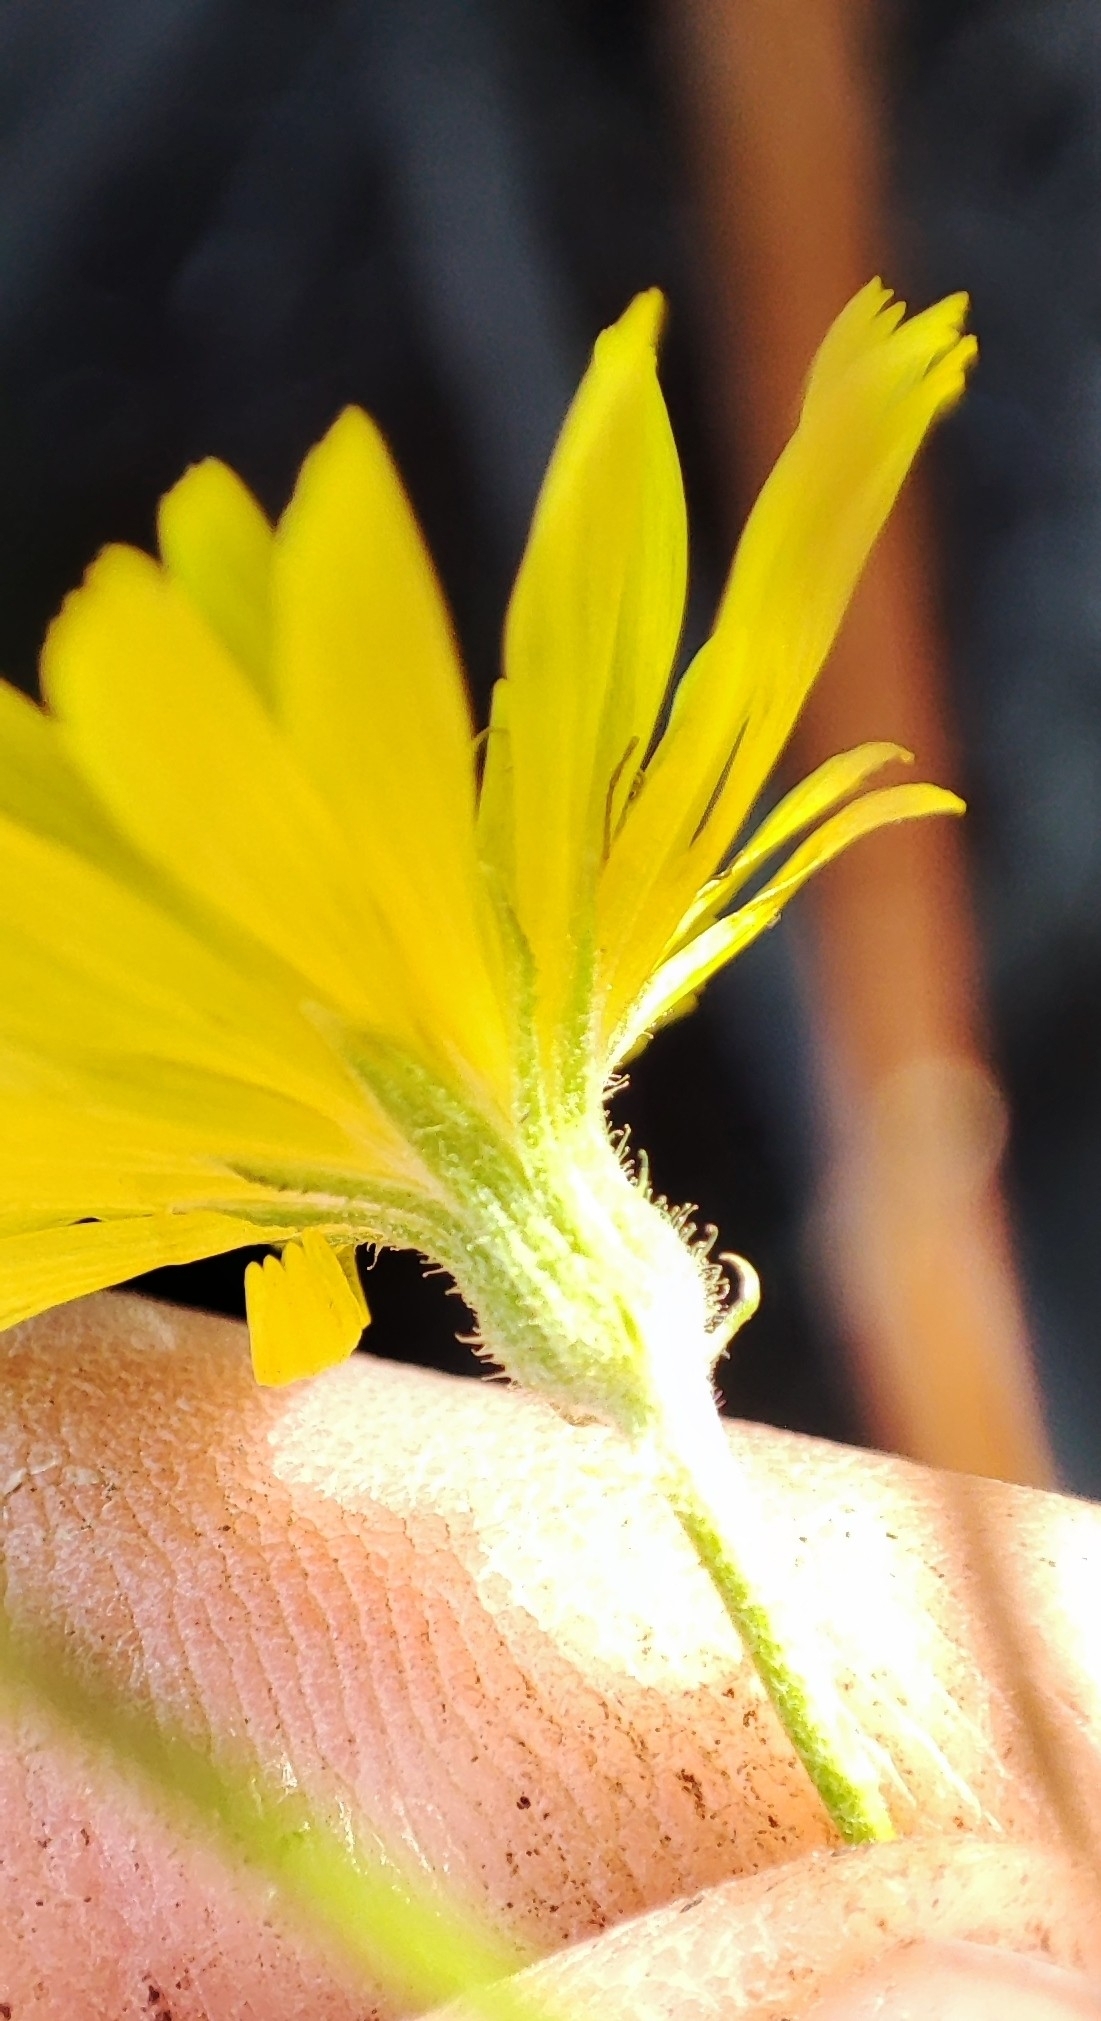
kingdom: Plantae
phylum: Tracheophyta
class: Magnoliopsida
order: Asterales
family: Asteraceae
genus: Crepis
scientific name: Crepis tectorum
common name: Narrow-leaved hawk's-beard
